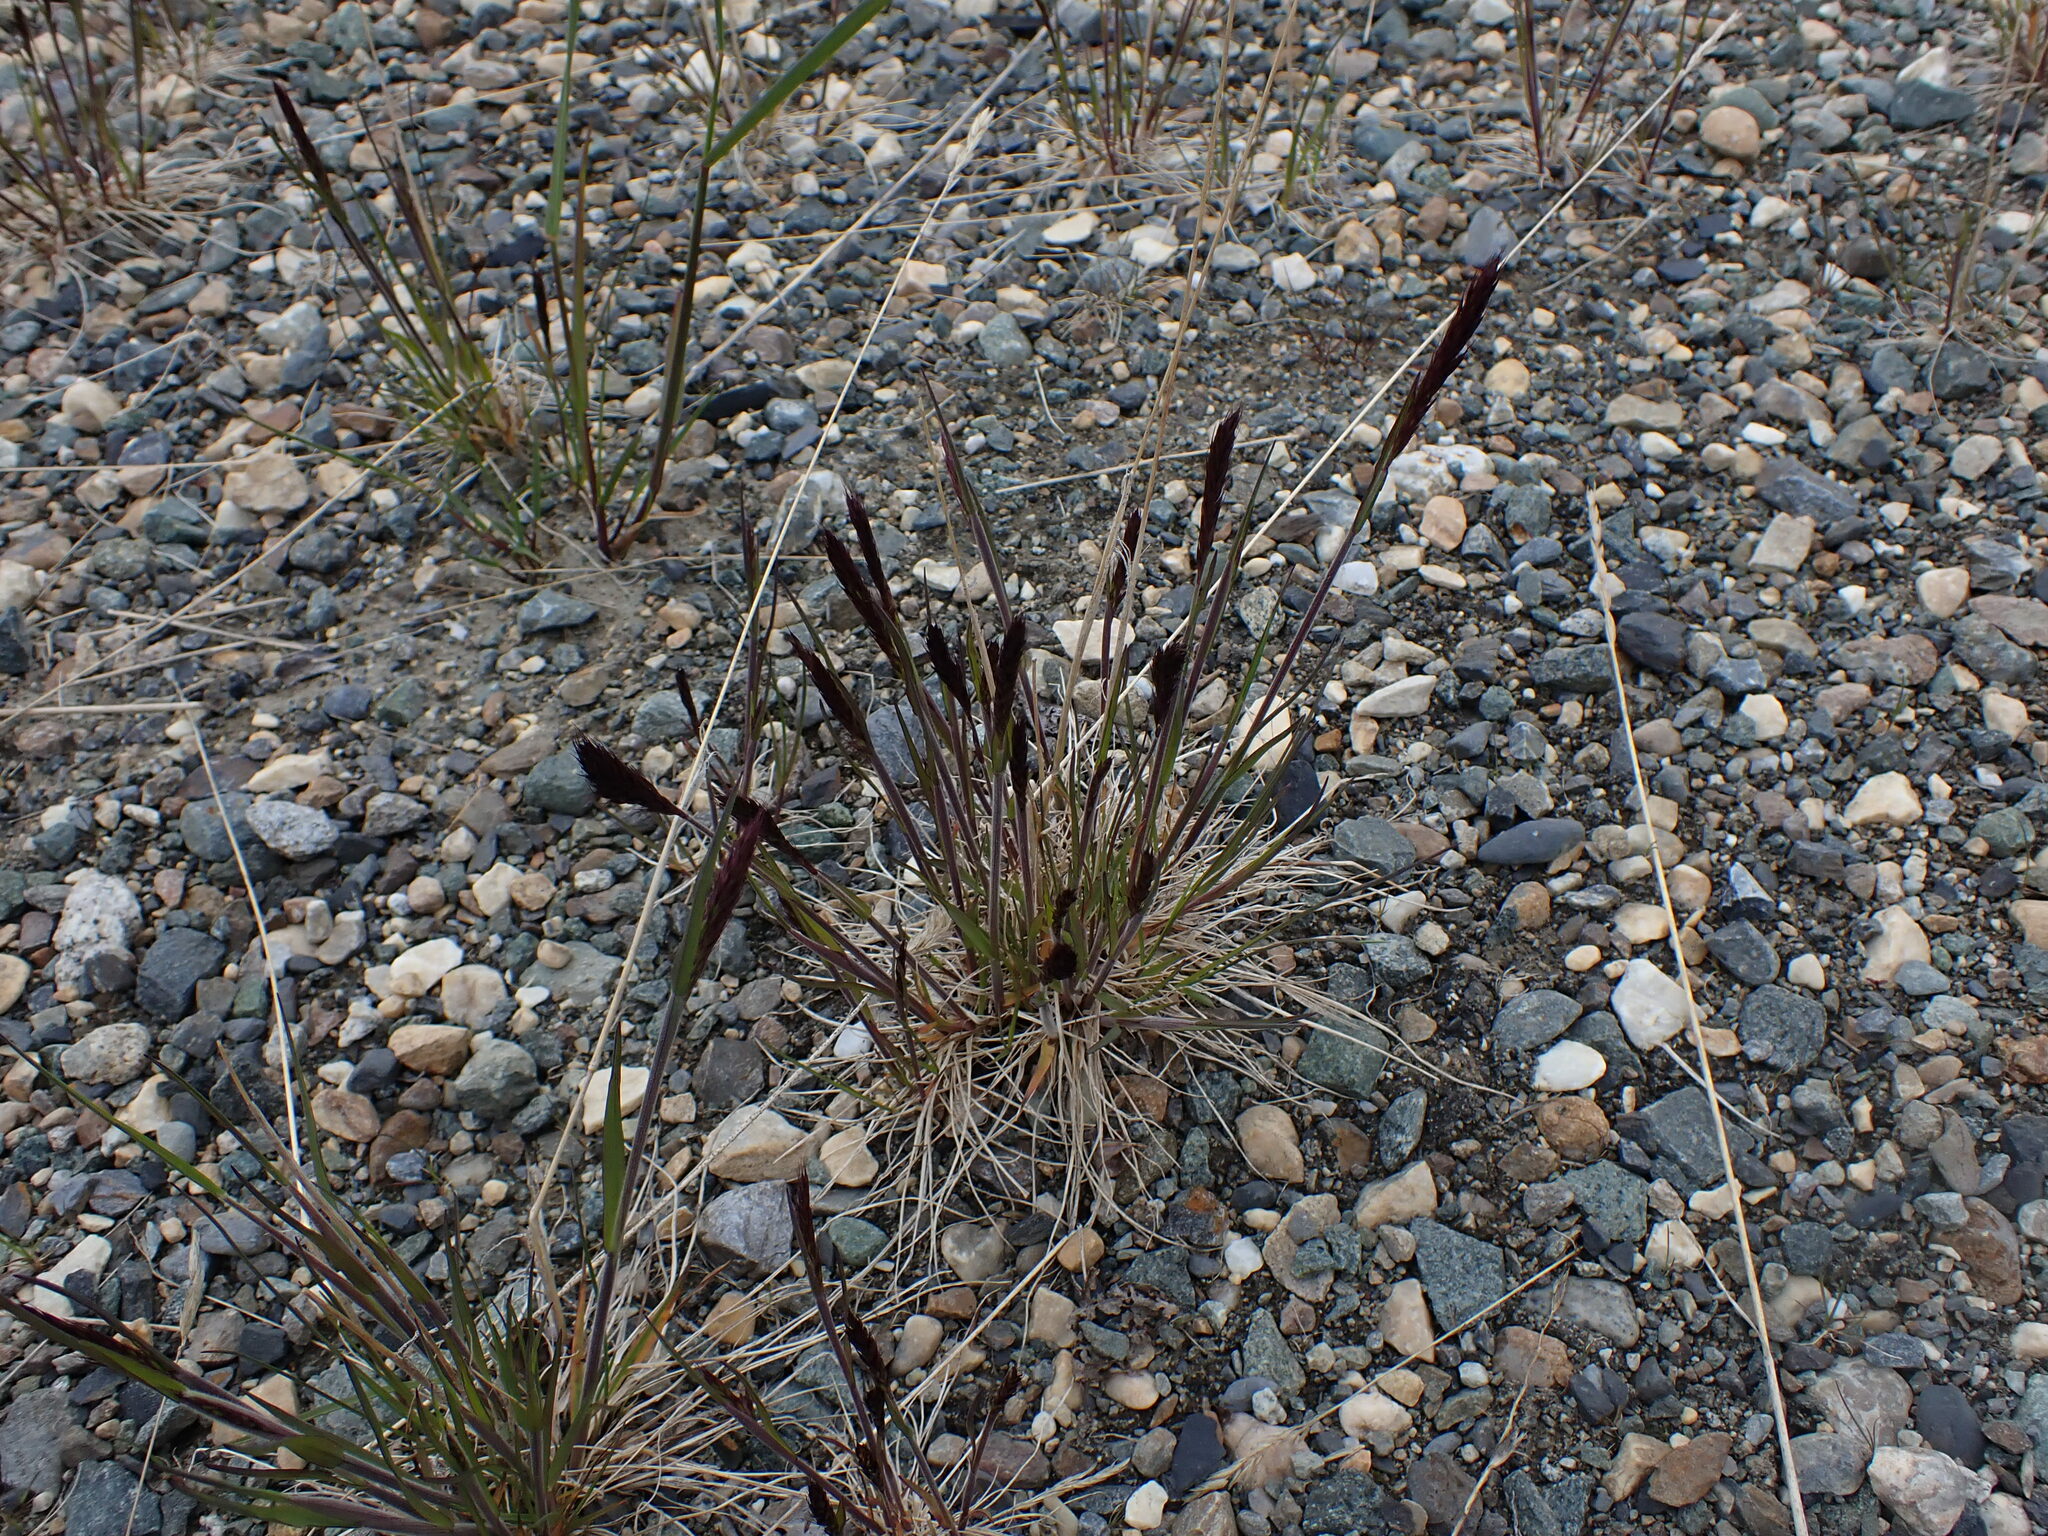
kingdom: Plantae
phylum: Tracheophyta
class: Liliopsida
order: Poales
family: Poaceae
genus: Koeleria
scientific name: Koeleria spicata
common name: Mountain trisetum
